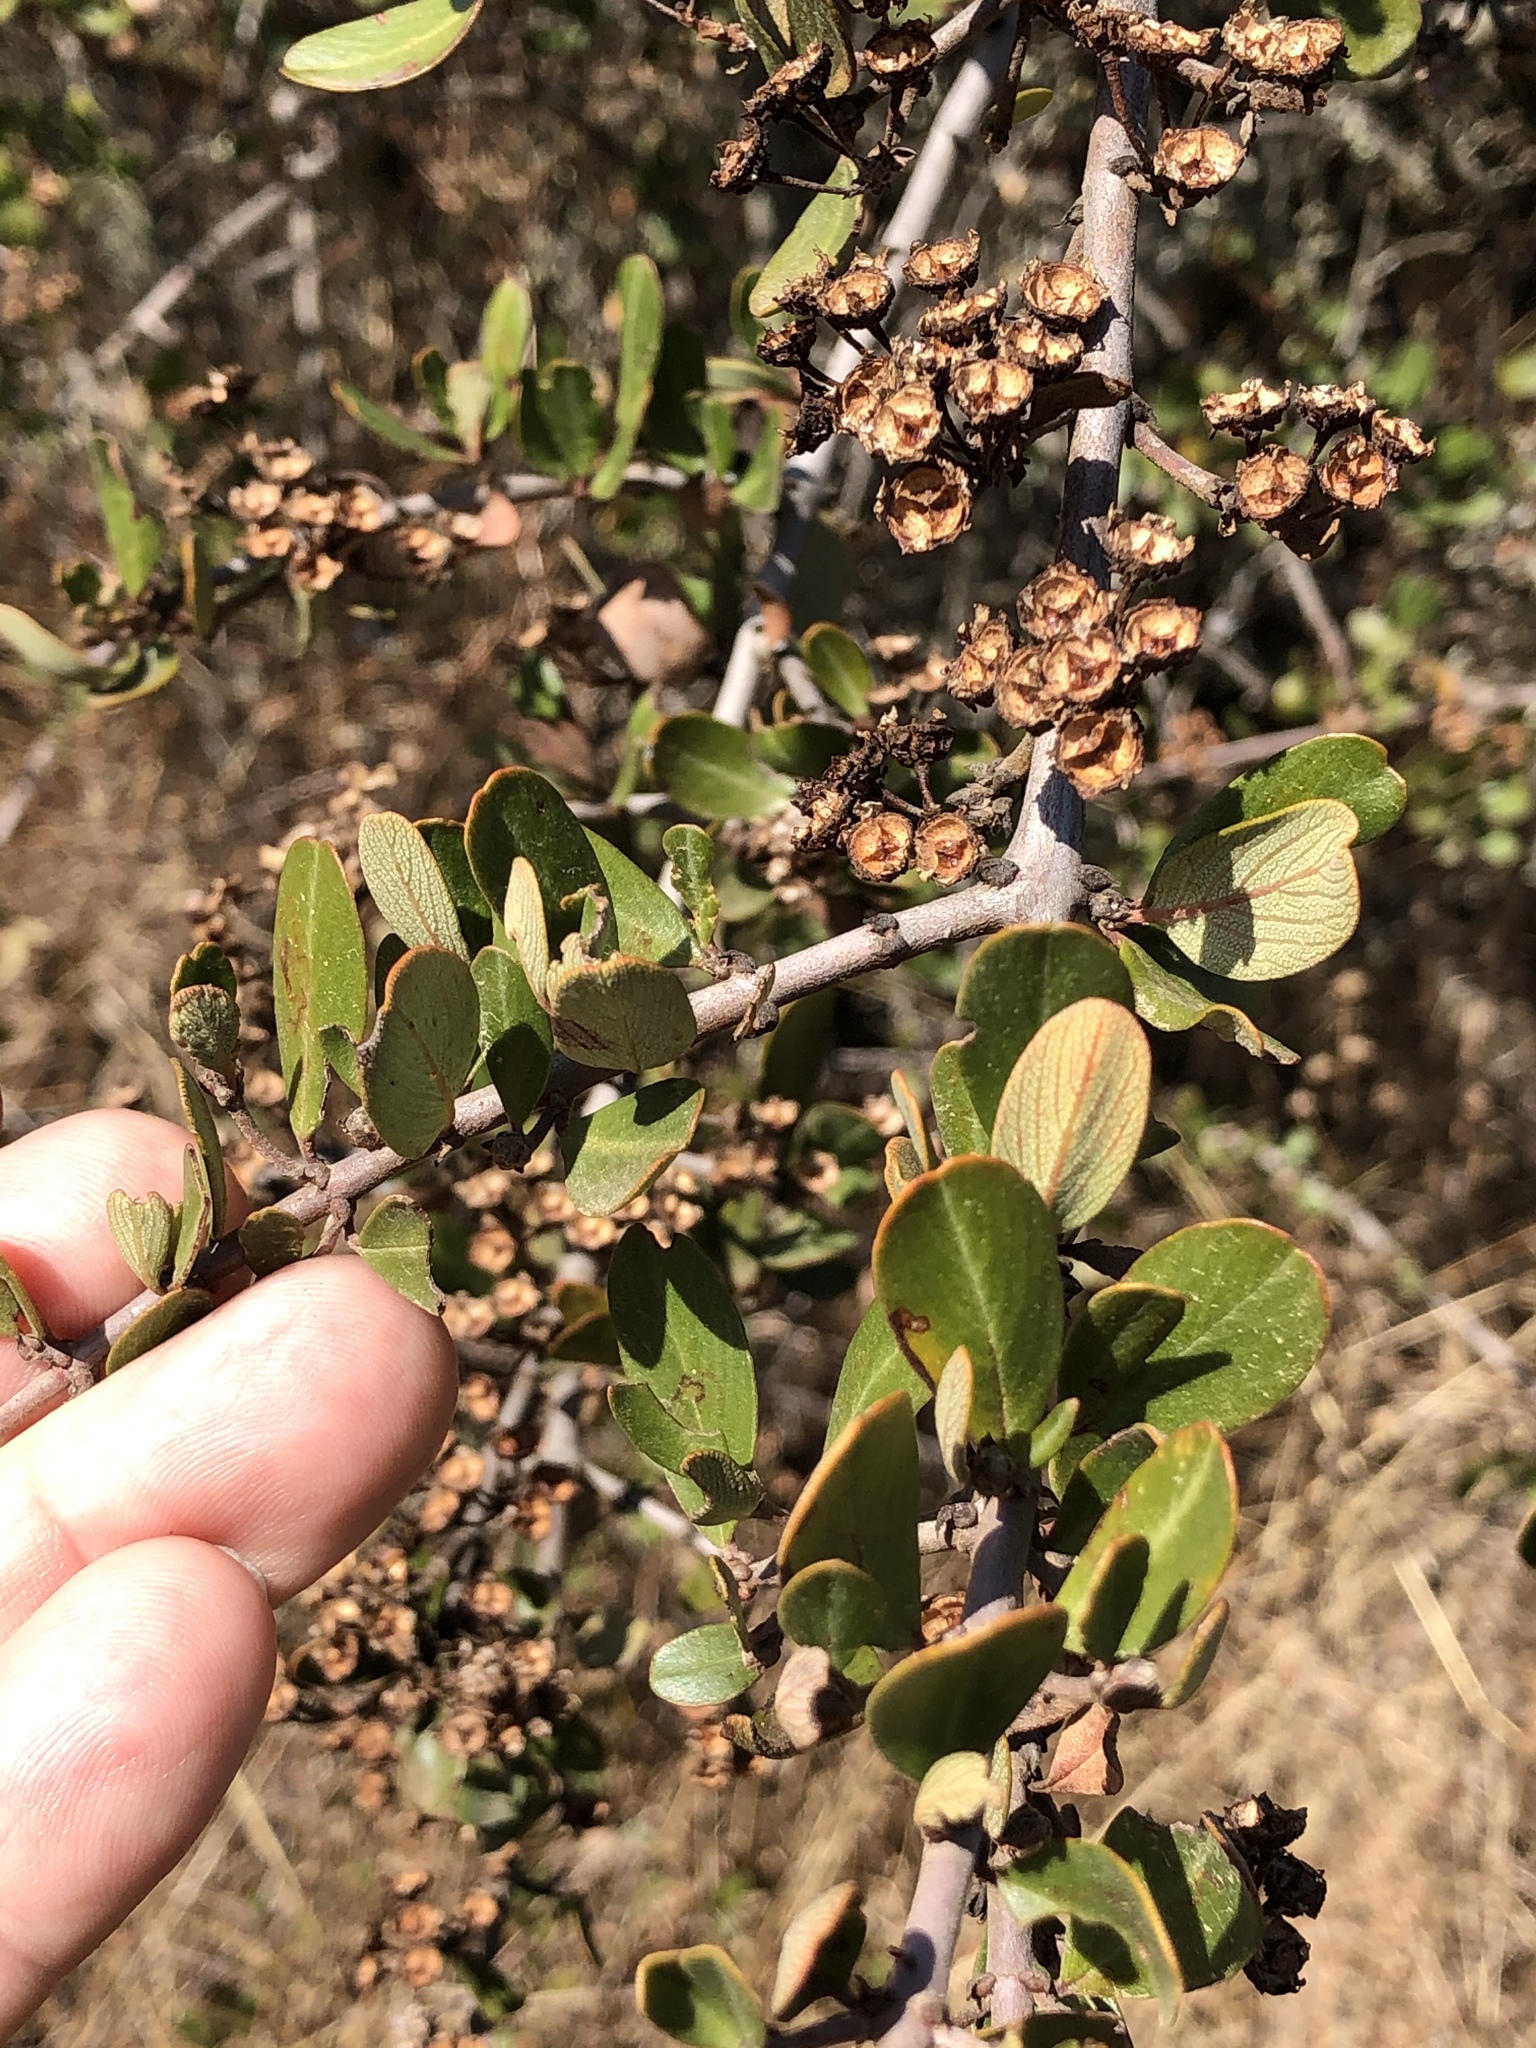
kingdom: Plantae
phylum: Tracheophyta
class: Magnoliopsida
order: Rosales
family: Rhamnaceae
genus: Ceanothus
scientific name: Ceanothus cuneatus
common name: Cuneate ceanothus
